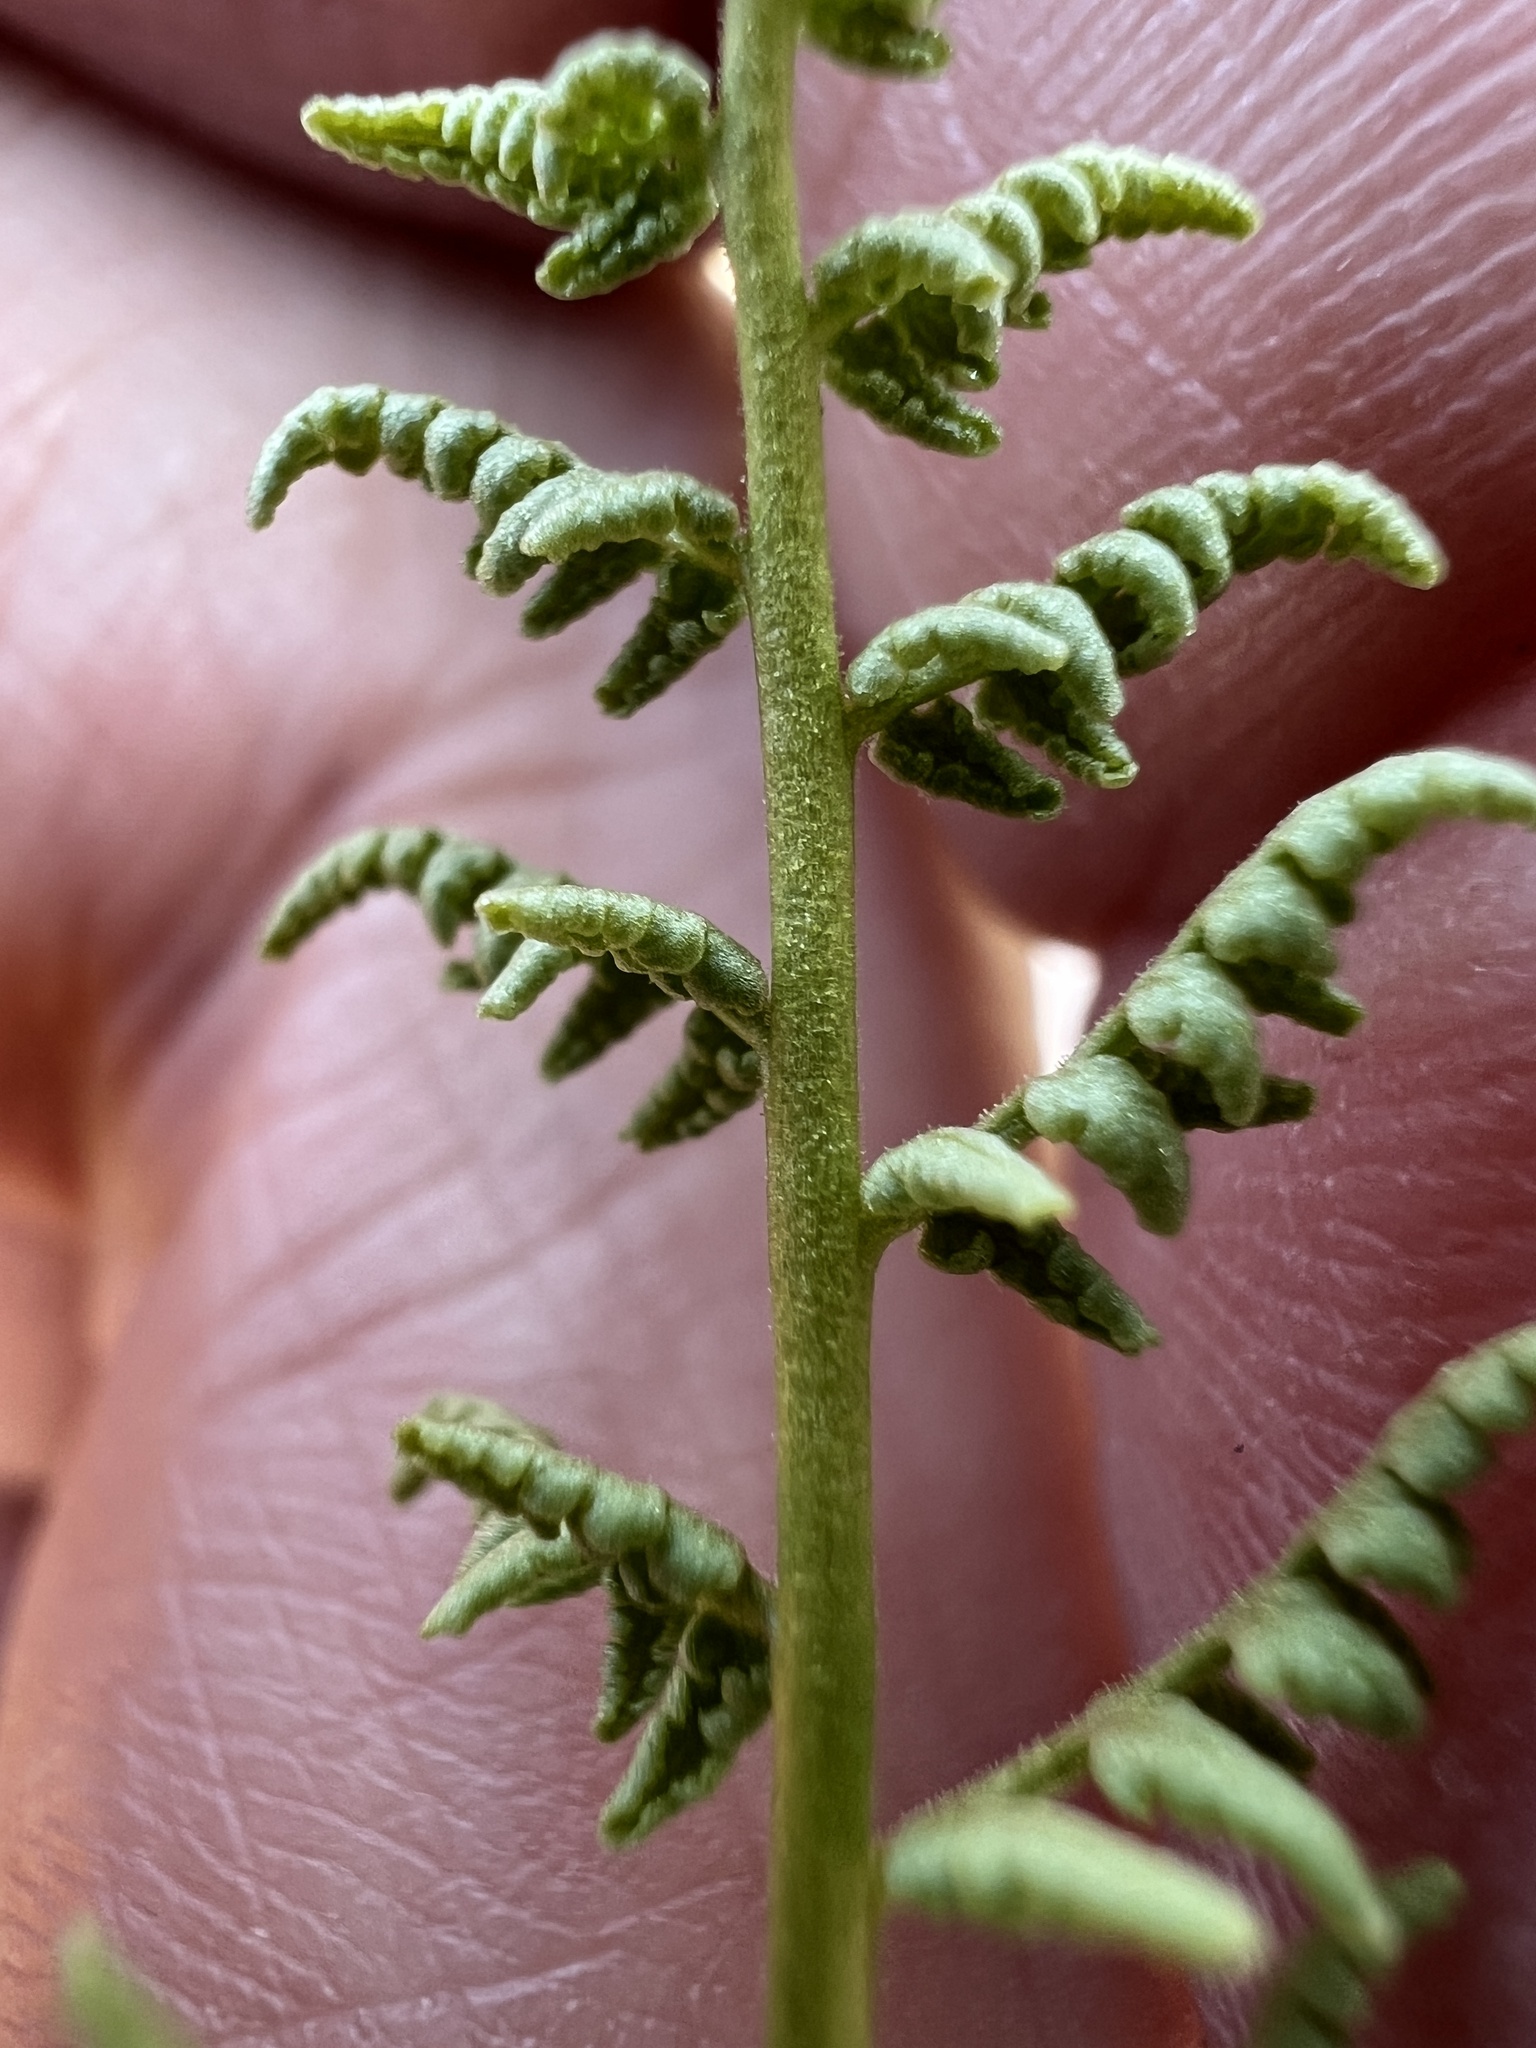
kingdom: Plantae
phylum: Tracheophyta
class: Polypodiopsida
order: Polypodiales
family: Woodsiaceae
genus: Physematium
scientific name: Physematium oreganum
